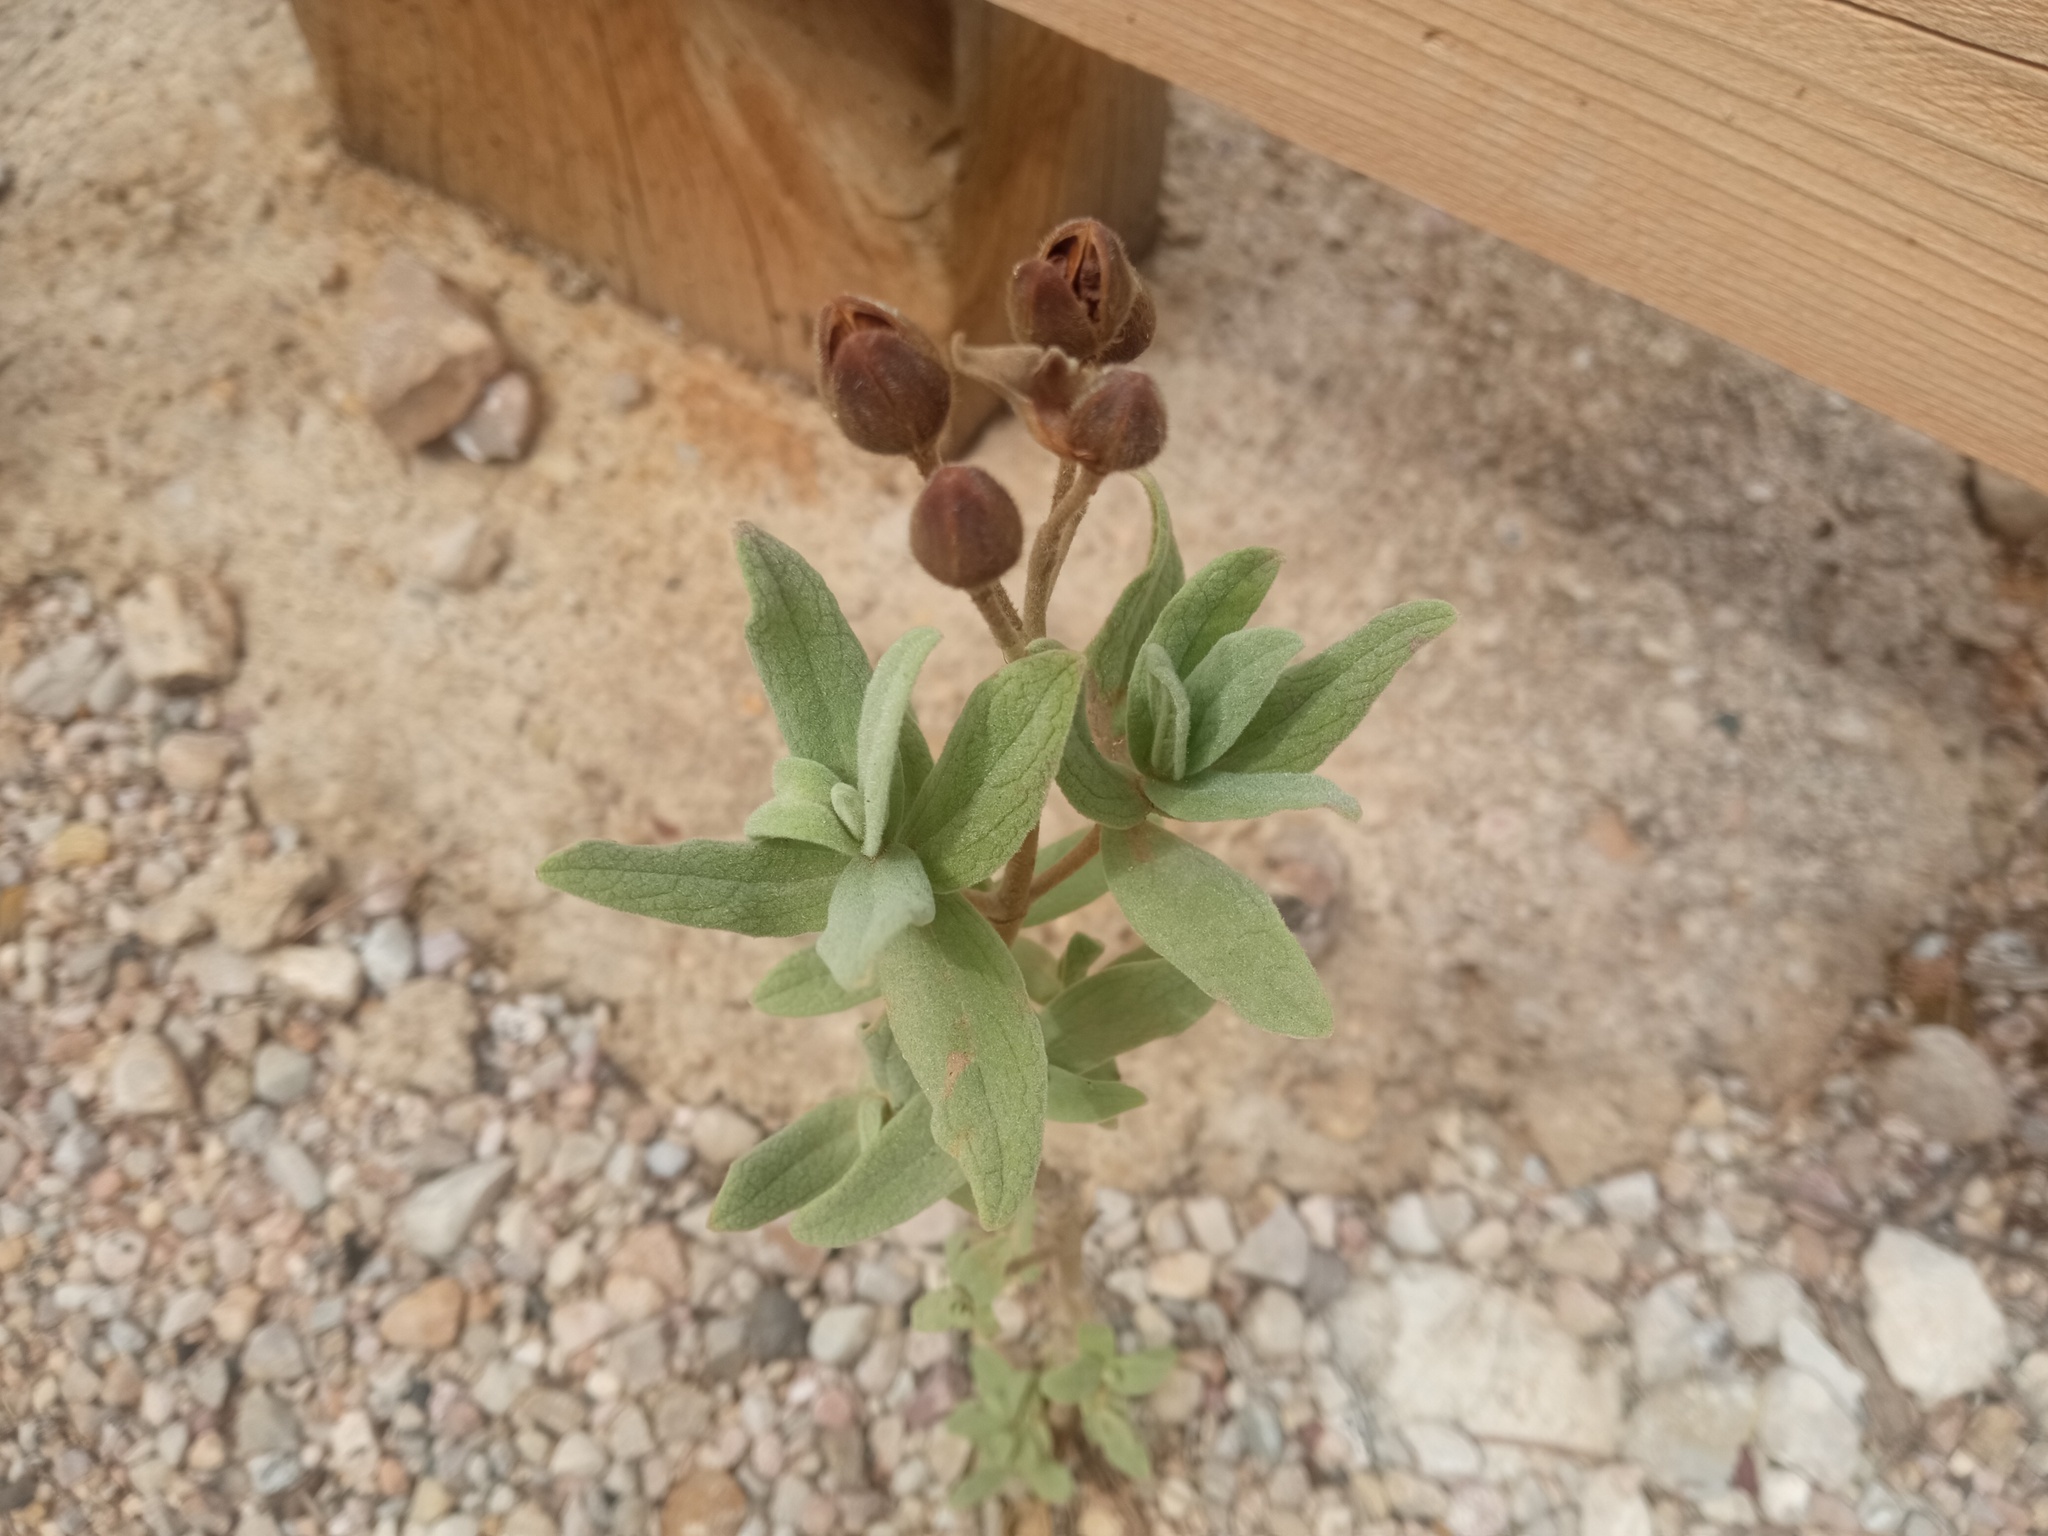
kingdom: Plantae
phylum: Tracheophyta
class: Magnoliopsida
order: Malvales
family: Cistaceae
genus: Cistus
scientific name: Cistus albidus
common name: White-leaf rock-rose
